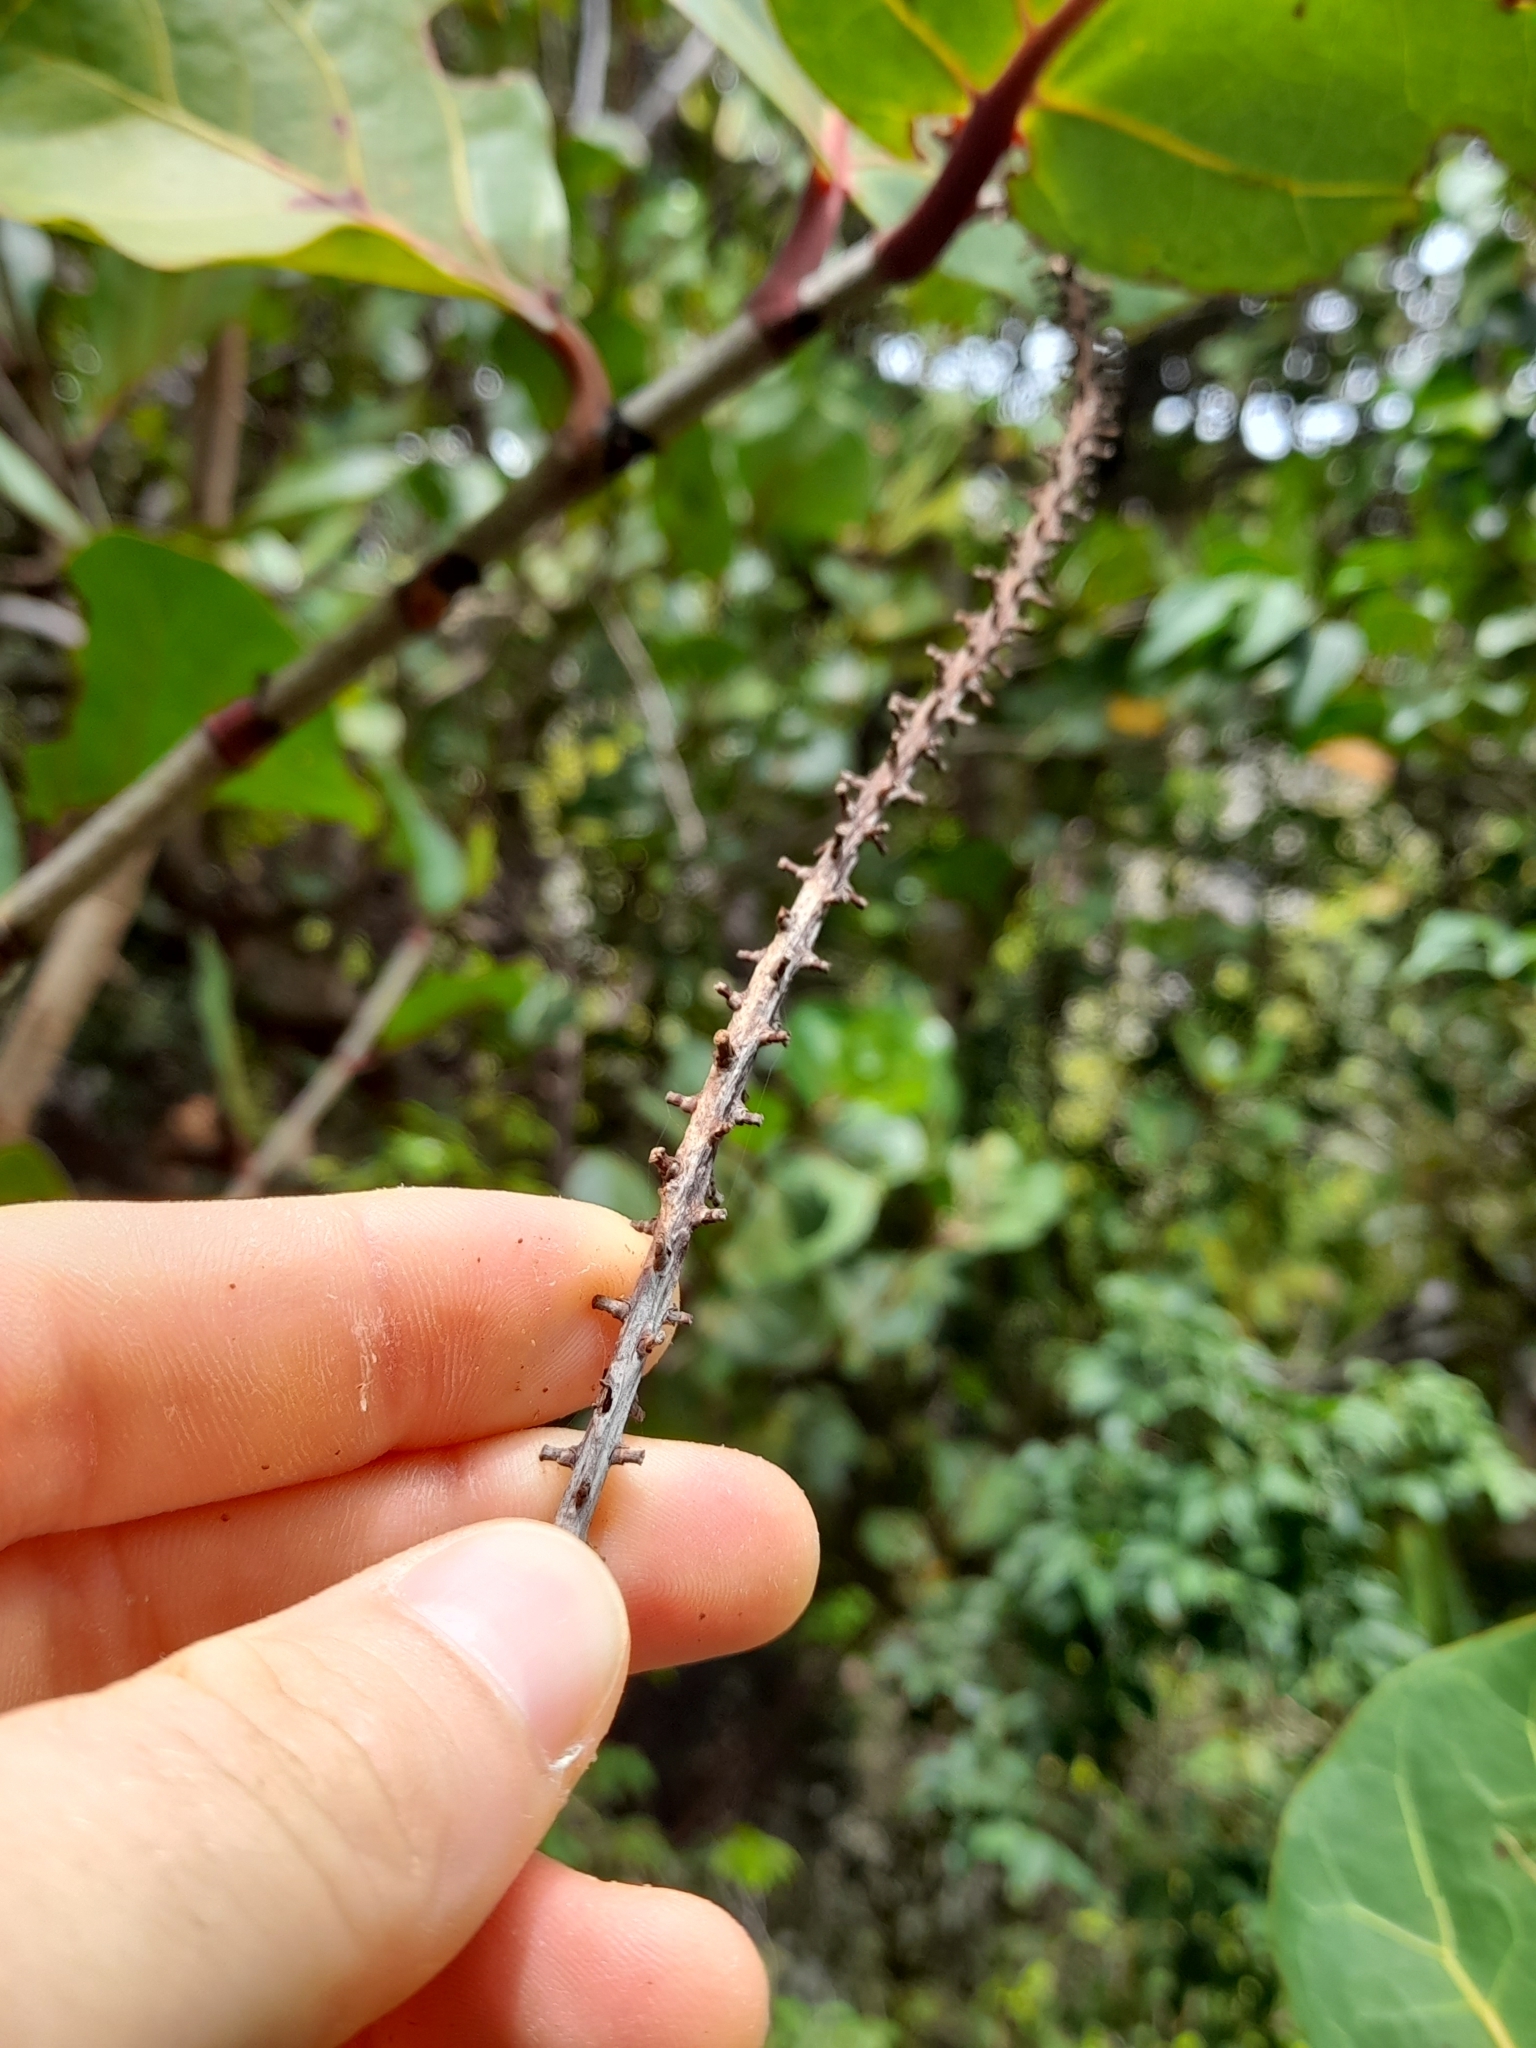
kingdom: Plantae
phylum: Tracheophyta
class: Magnoliopsida
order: Caryophyllales
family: Polygonaceae
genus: Coccoloba
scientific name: Coccoloba uvifera
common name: Seagrape
